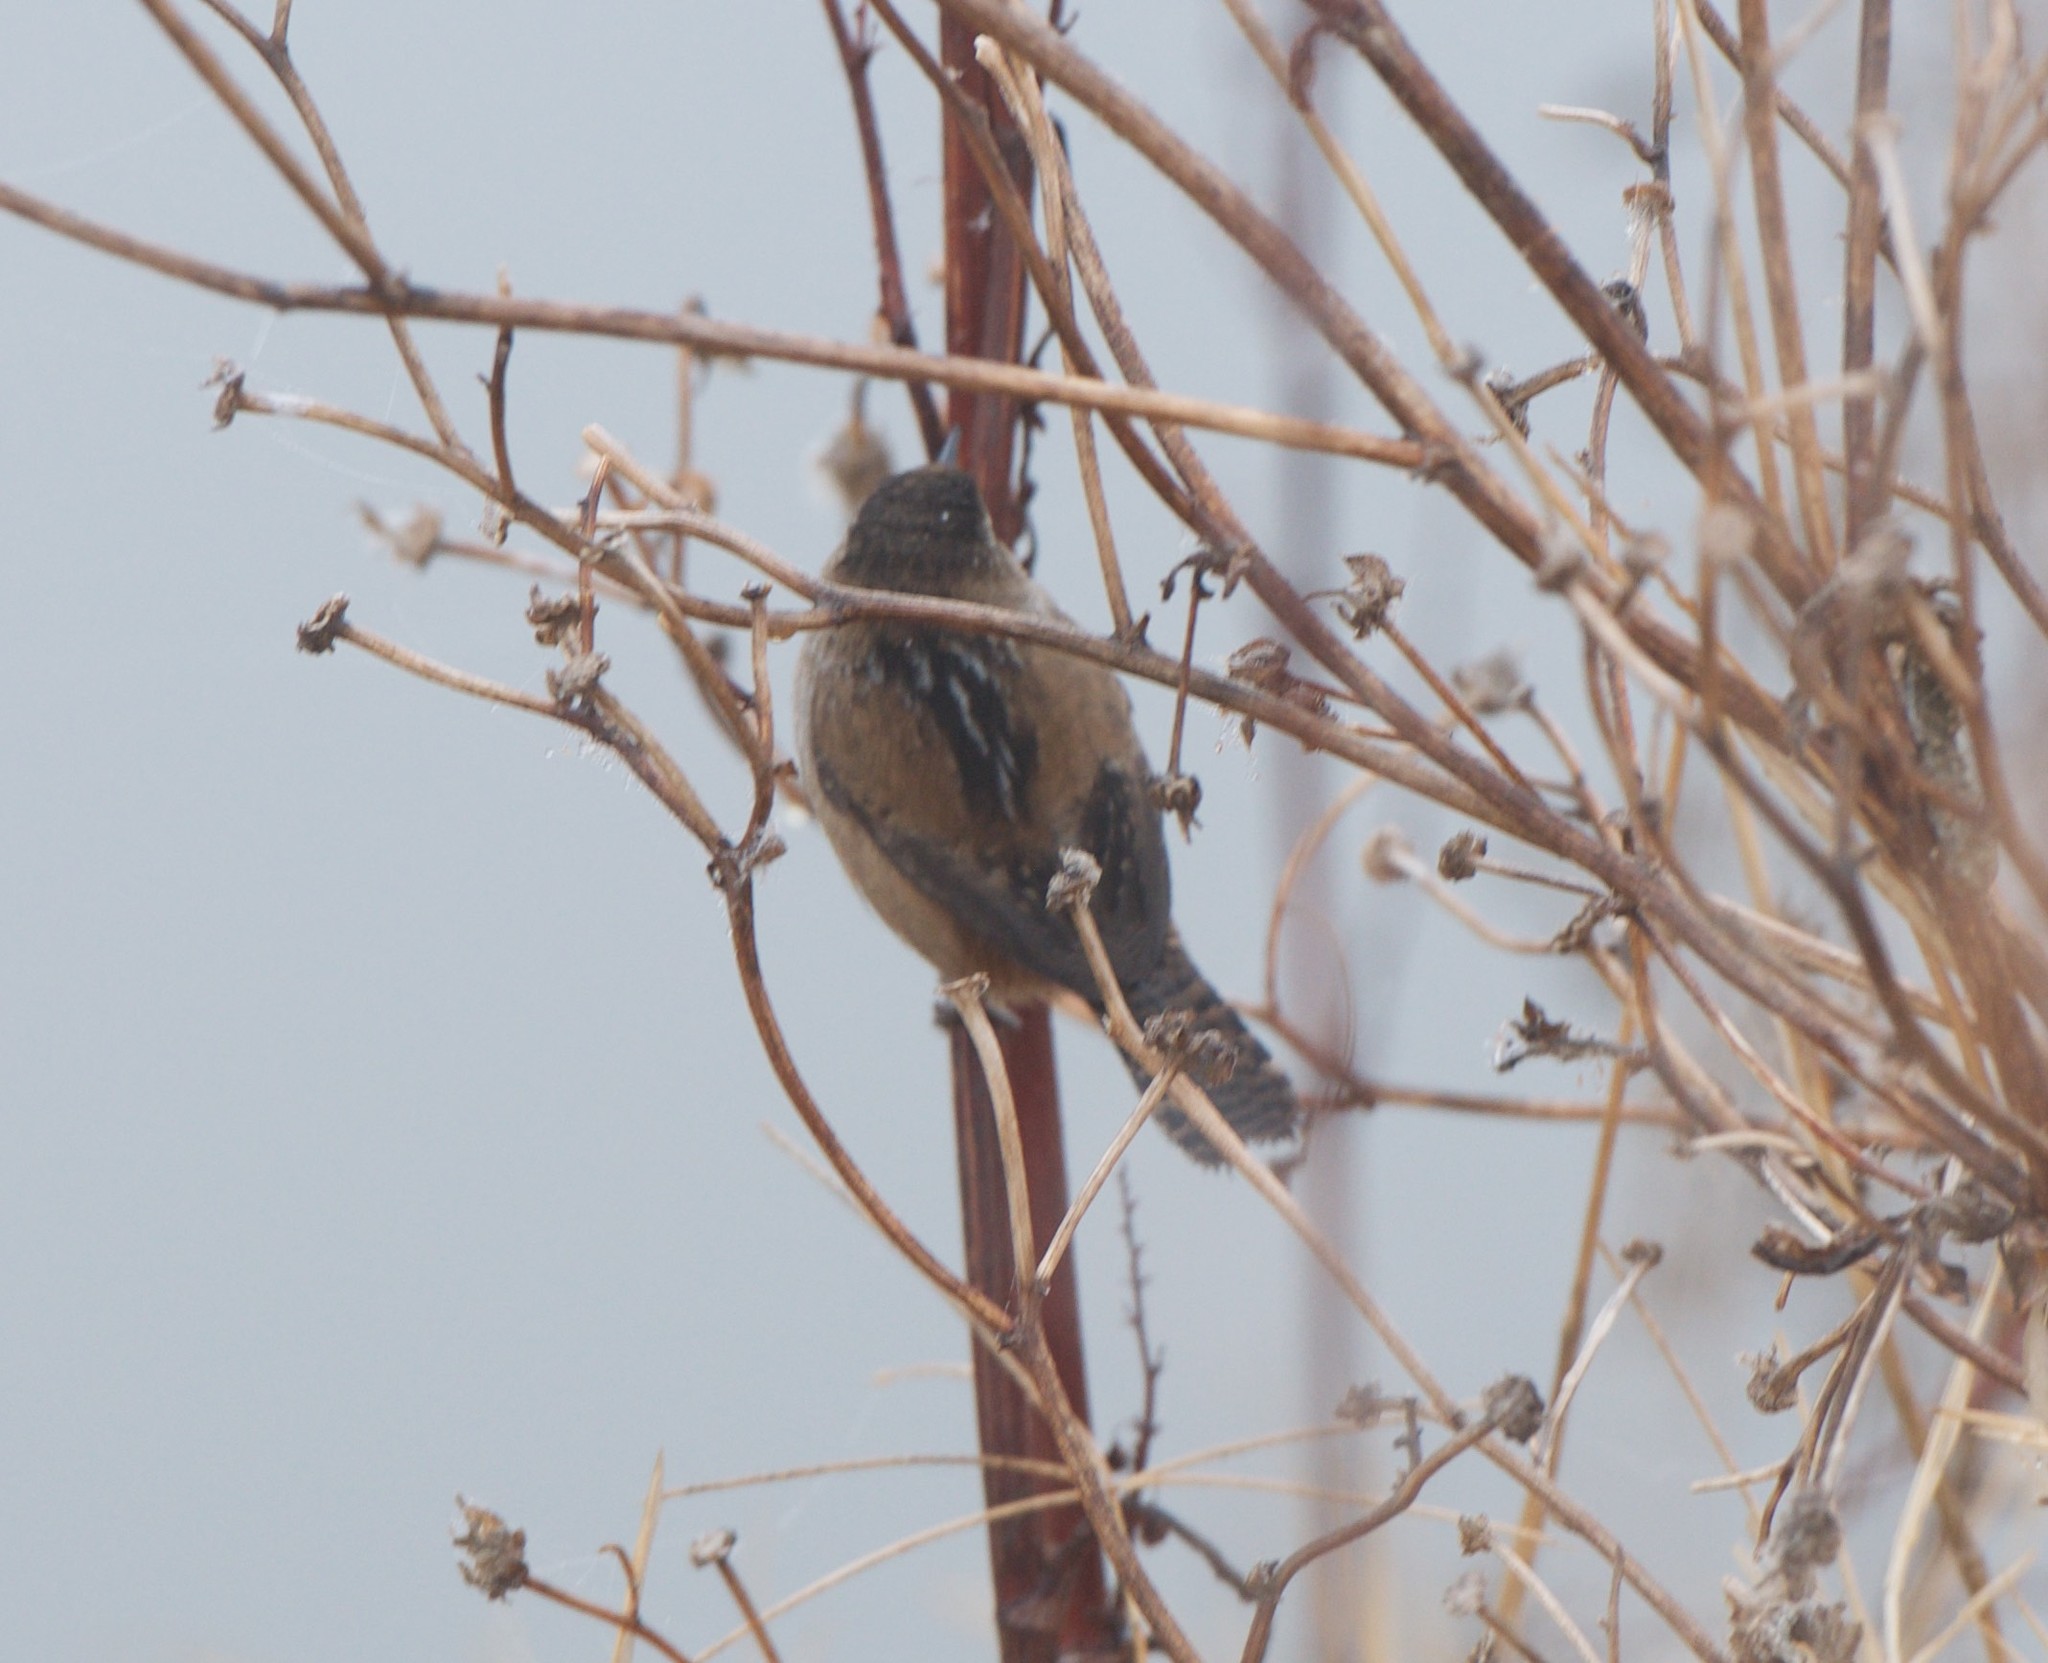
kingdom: Animalia
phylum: Chordata
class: Aves
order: Passeriformes
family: Troglodytidae
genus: Cistothorus
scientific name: Cistothorus palustris
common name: Marsh wren
